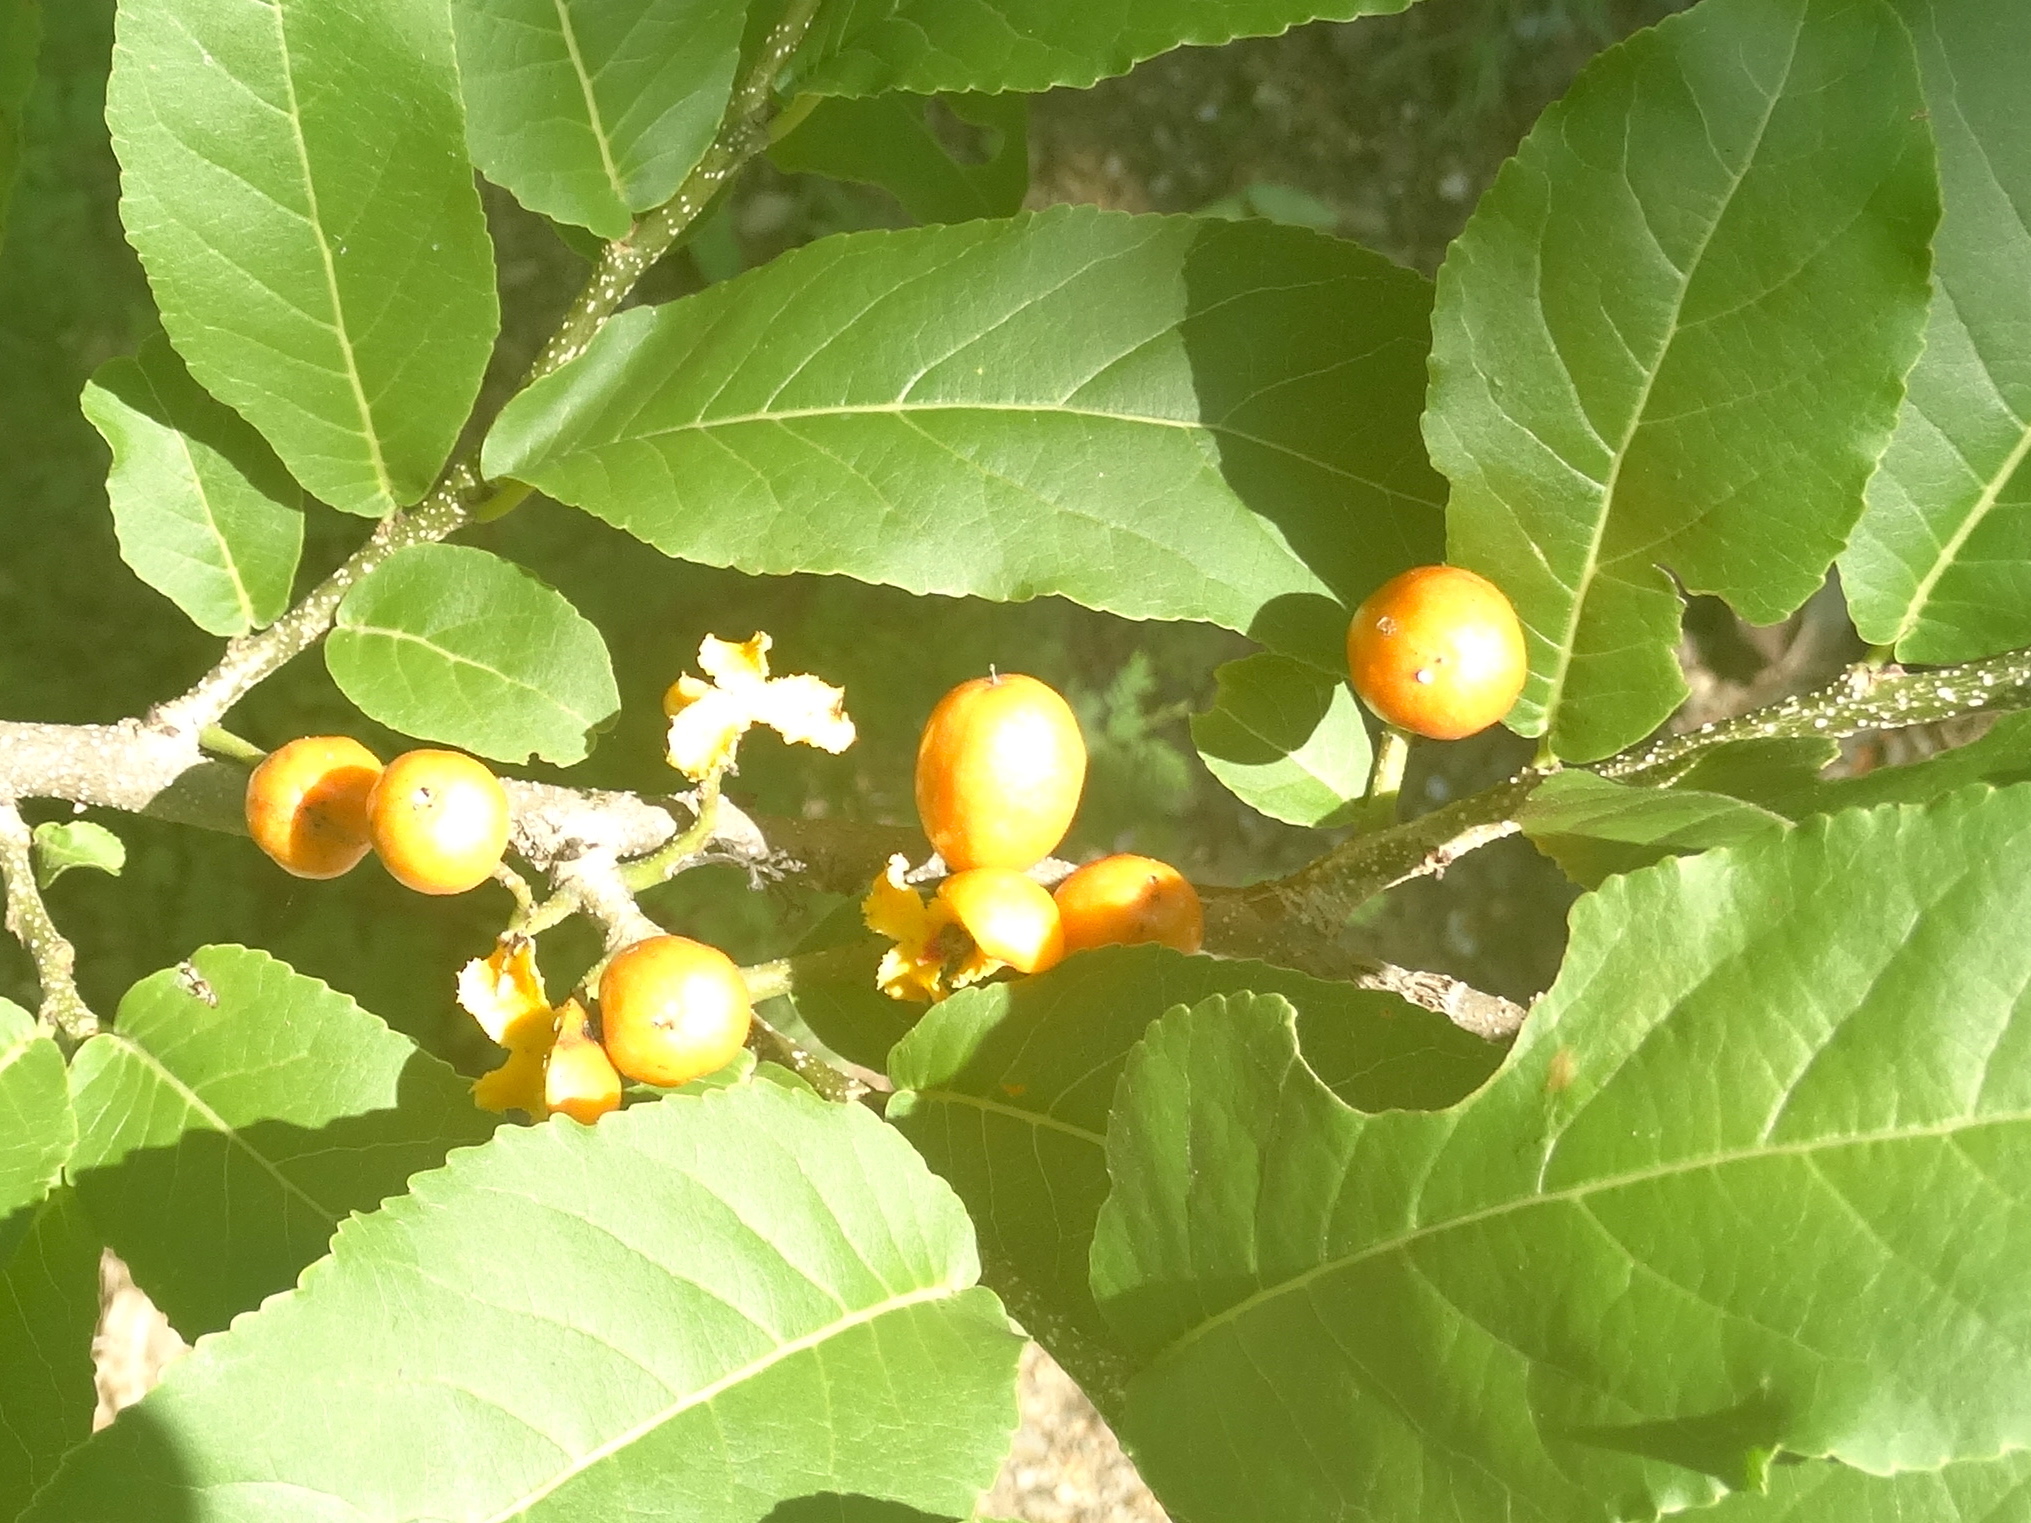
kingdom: Plantae
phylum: Tracheophyta
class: Magnoliopsida
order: Malpighiales
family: Salicaceae
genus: Casearia
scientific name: Casearia corymbosa
